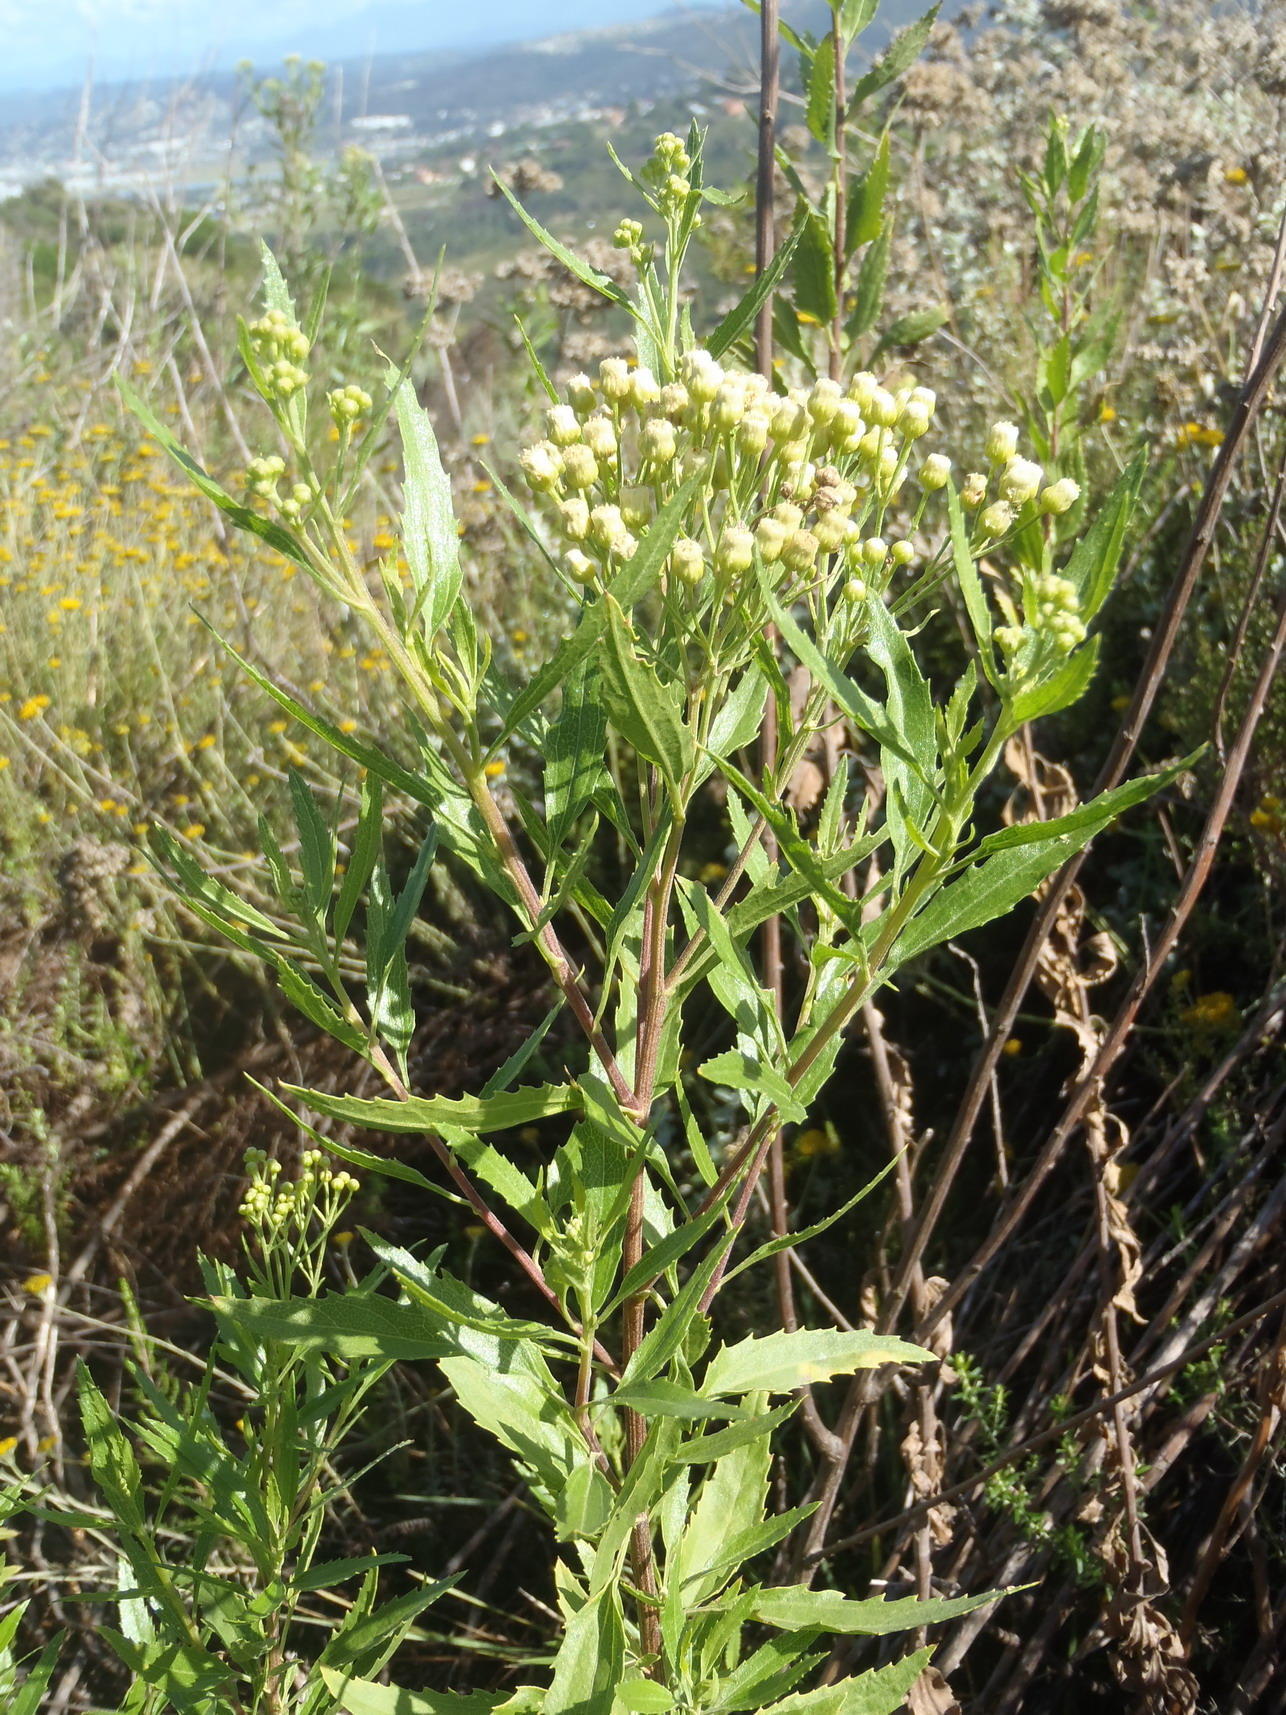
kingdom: Plantae
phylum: Tracheophyta
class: Magnoliopsida
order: Asterales
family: Asteraceae
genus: Nidorella
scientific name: Nidorella ivifolia
